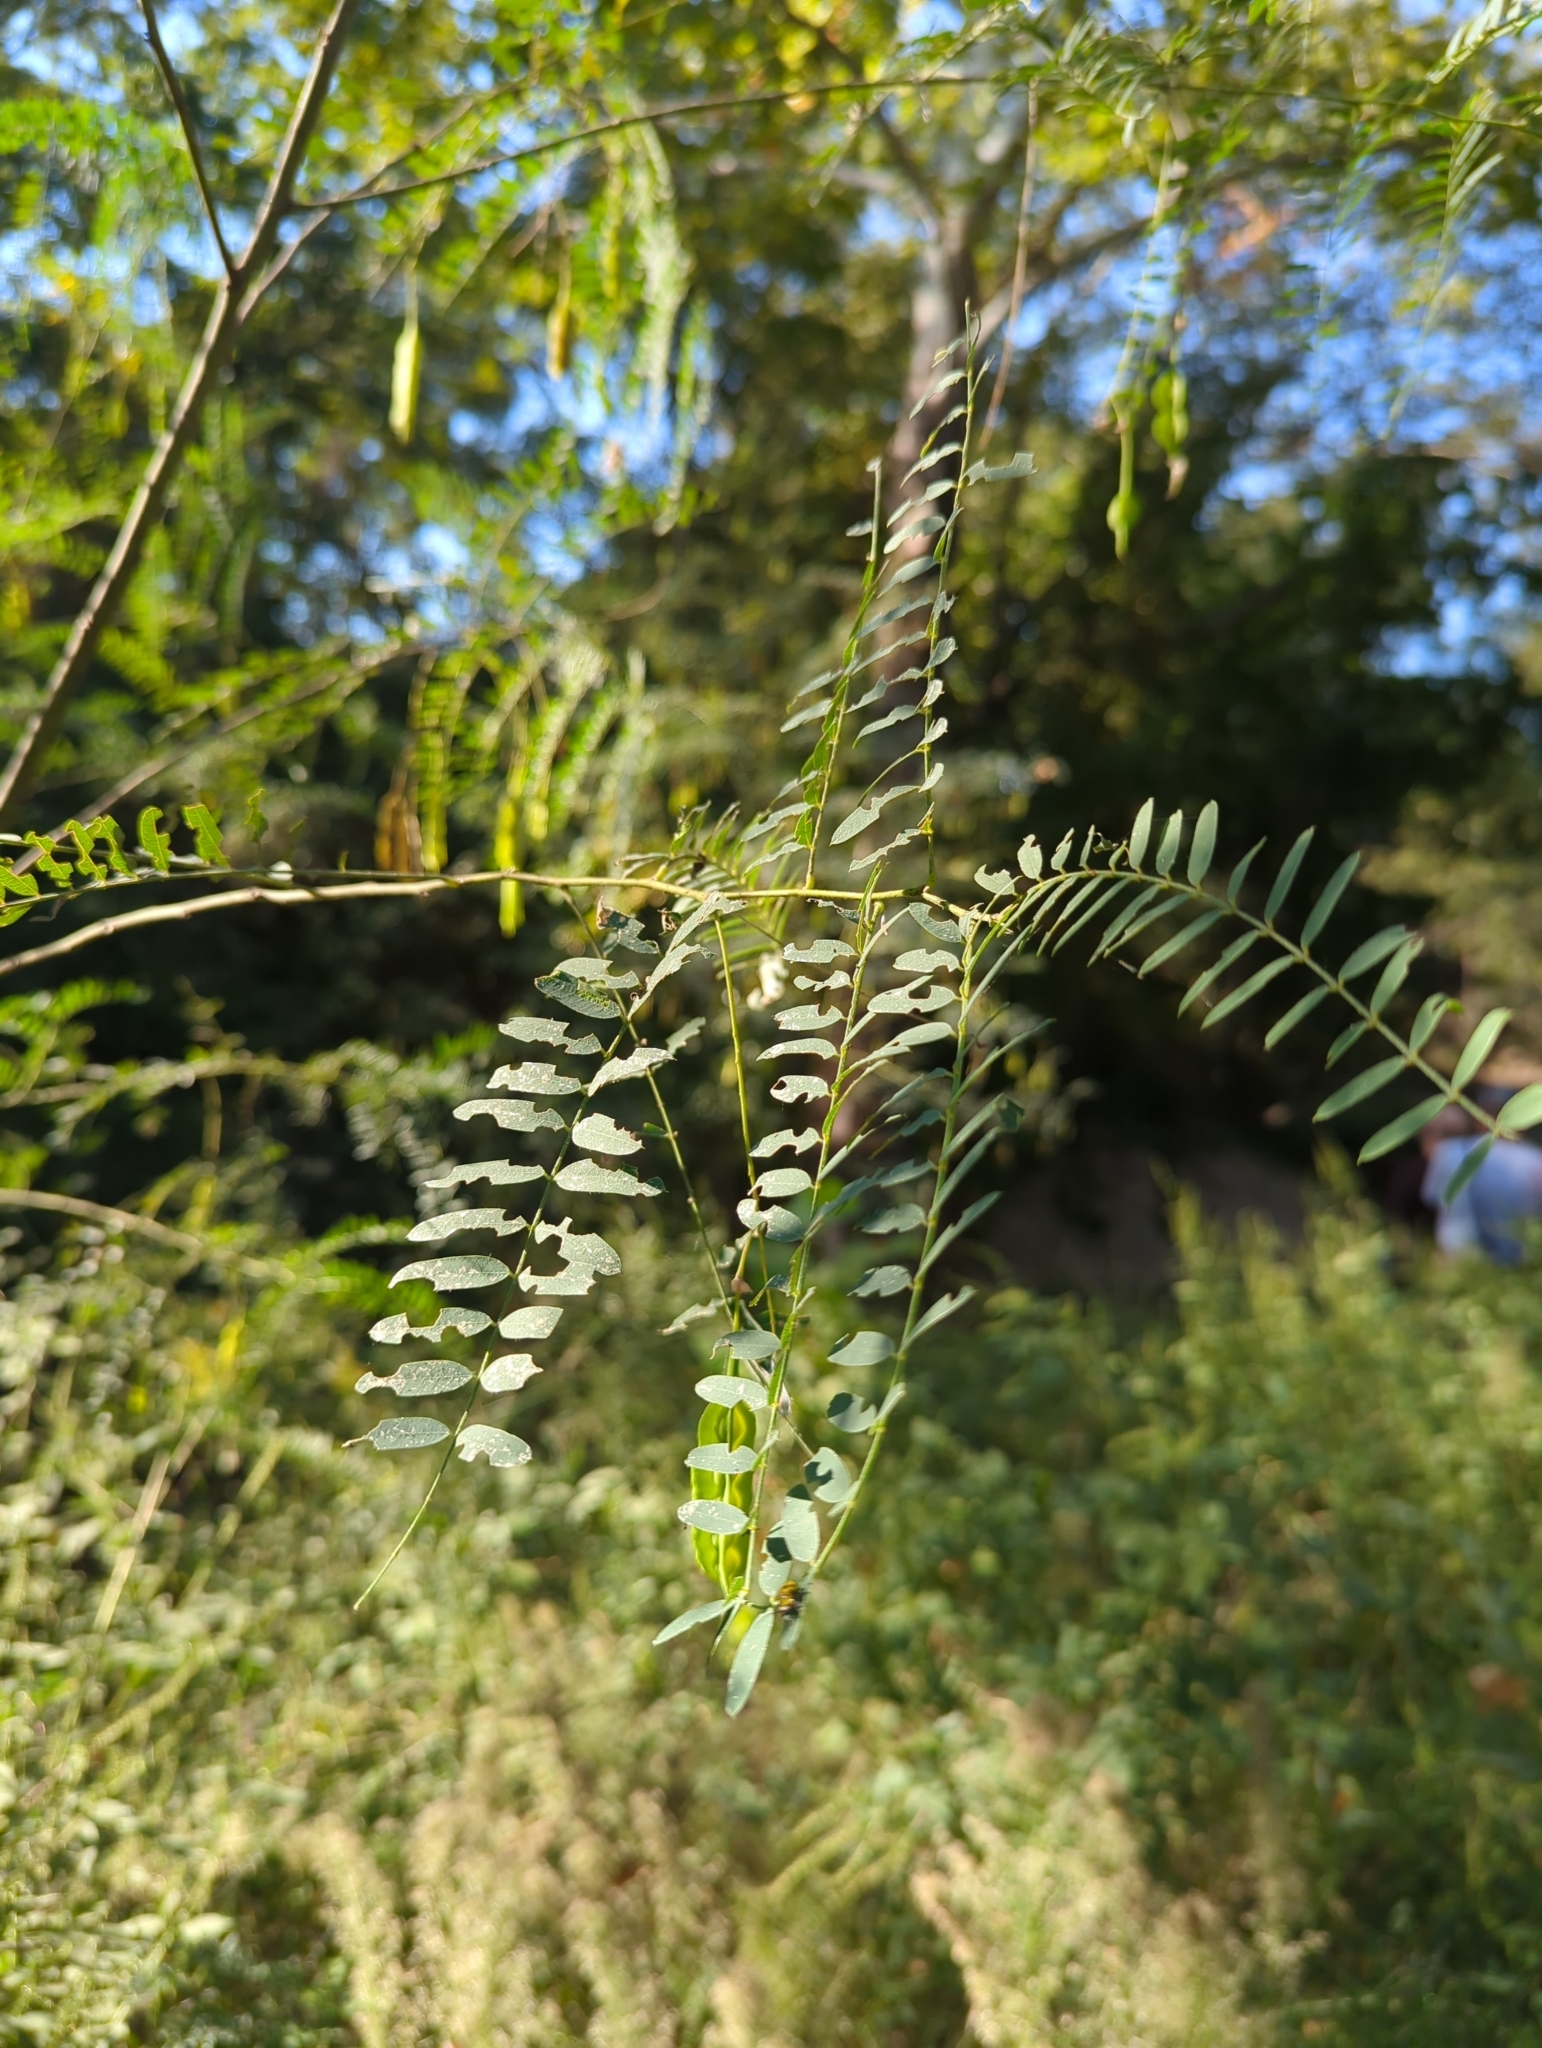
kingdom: Plantae
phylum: Tracheophyta
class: Magnoliopsida
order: Fabales
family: Fabaceae
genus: Sesbania
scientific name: Sesbania drummondii
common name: Poison-bean
